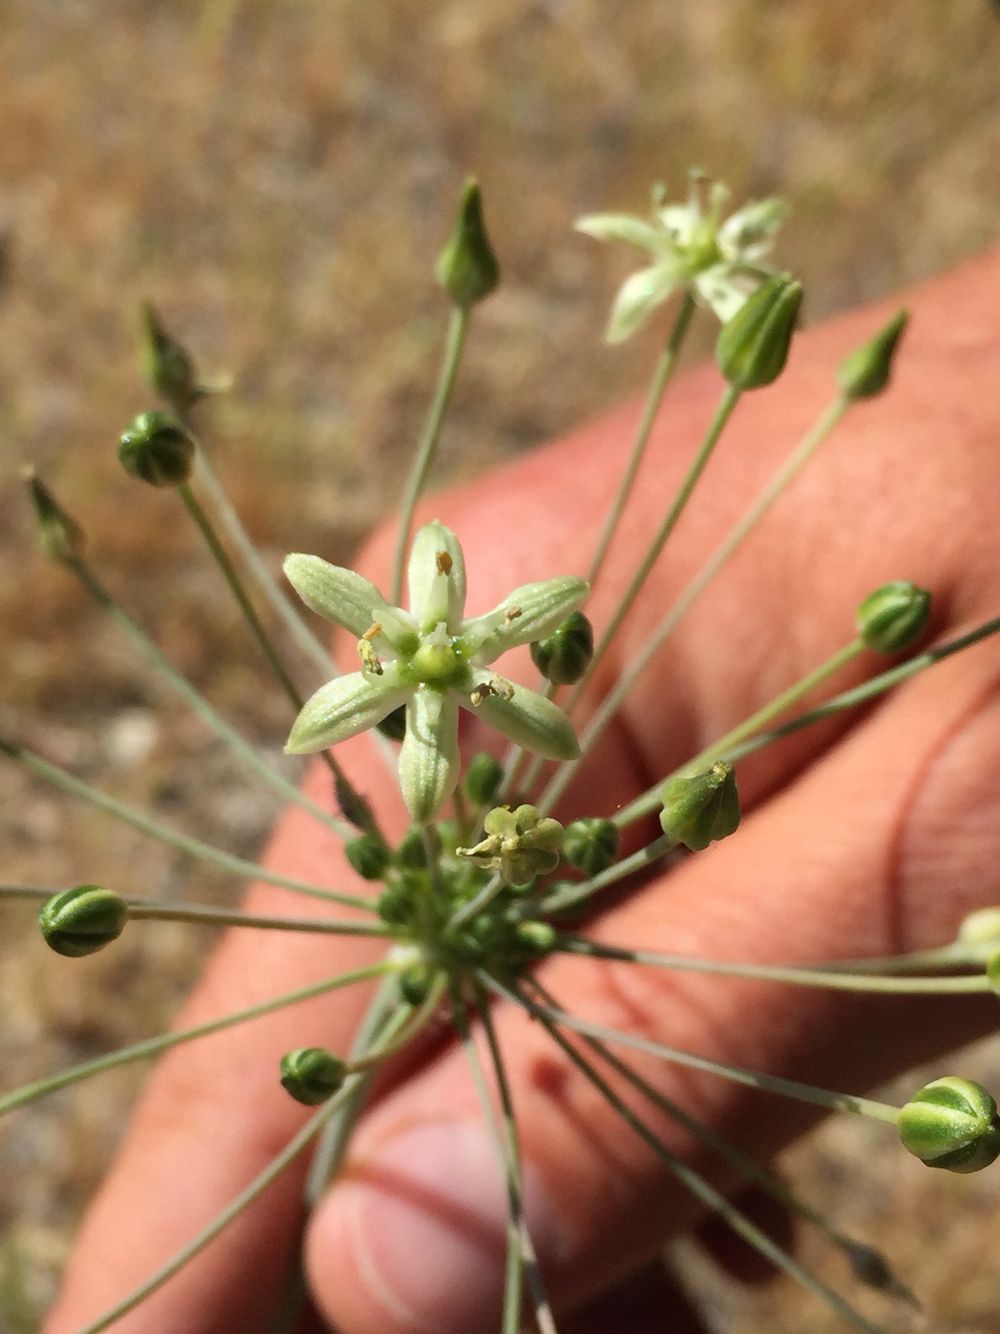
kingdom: Plantae
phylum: Tracheophyta
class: Liliopsida
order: Asparagales
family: Asparagaceae
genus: Muilla
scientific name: Muilla maritima
